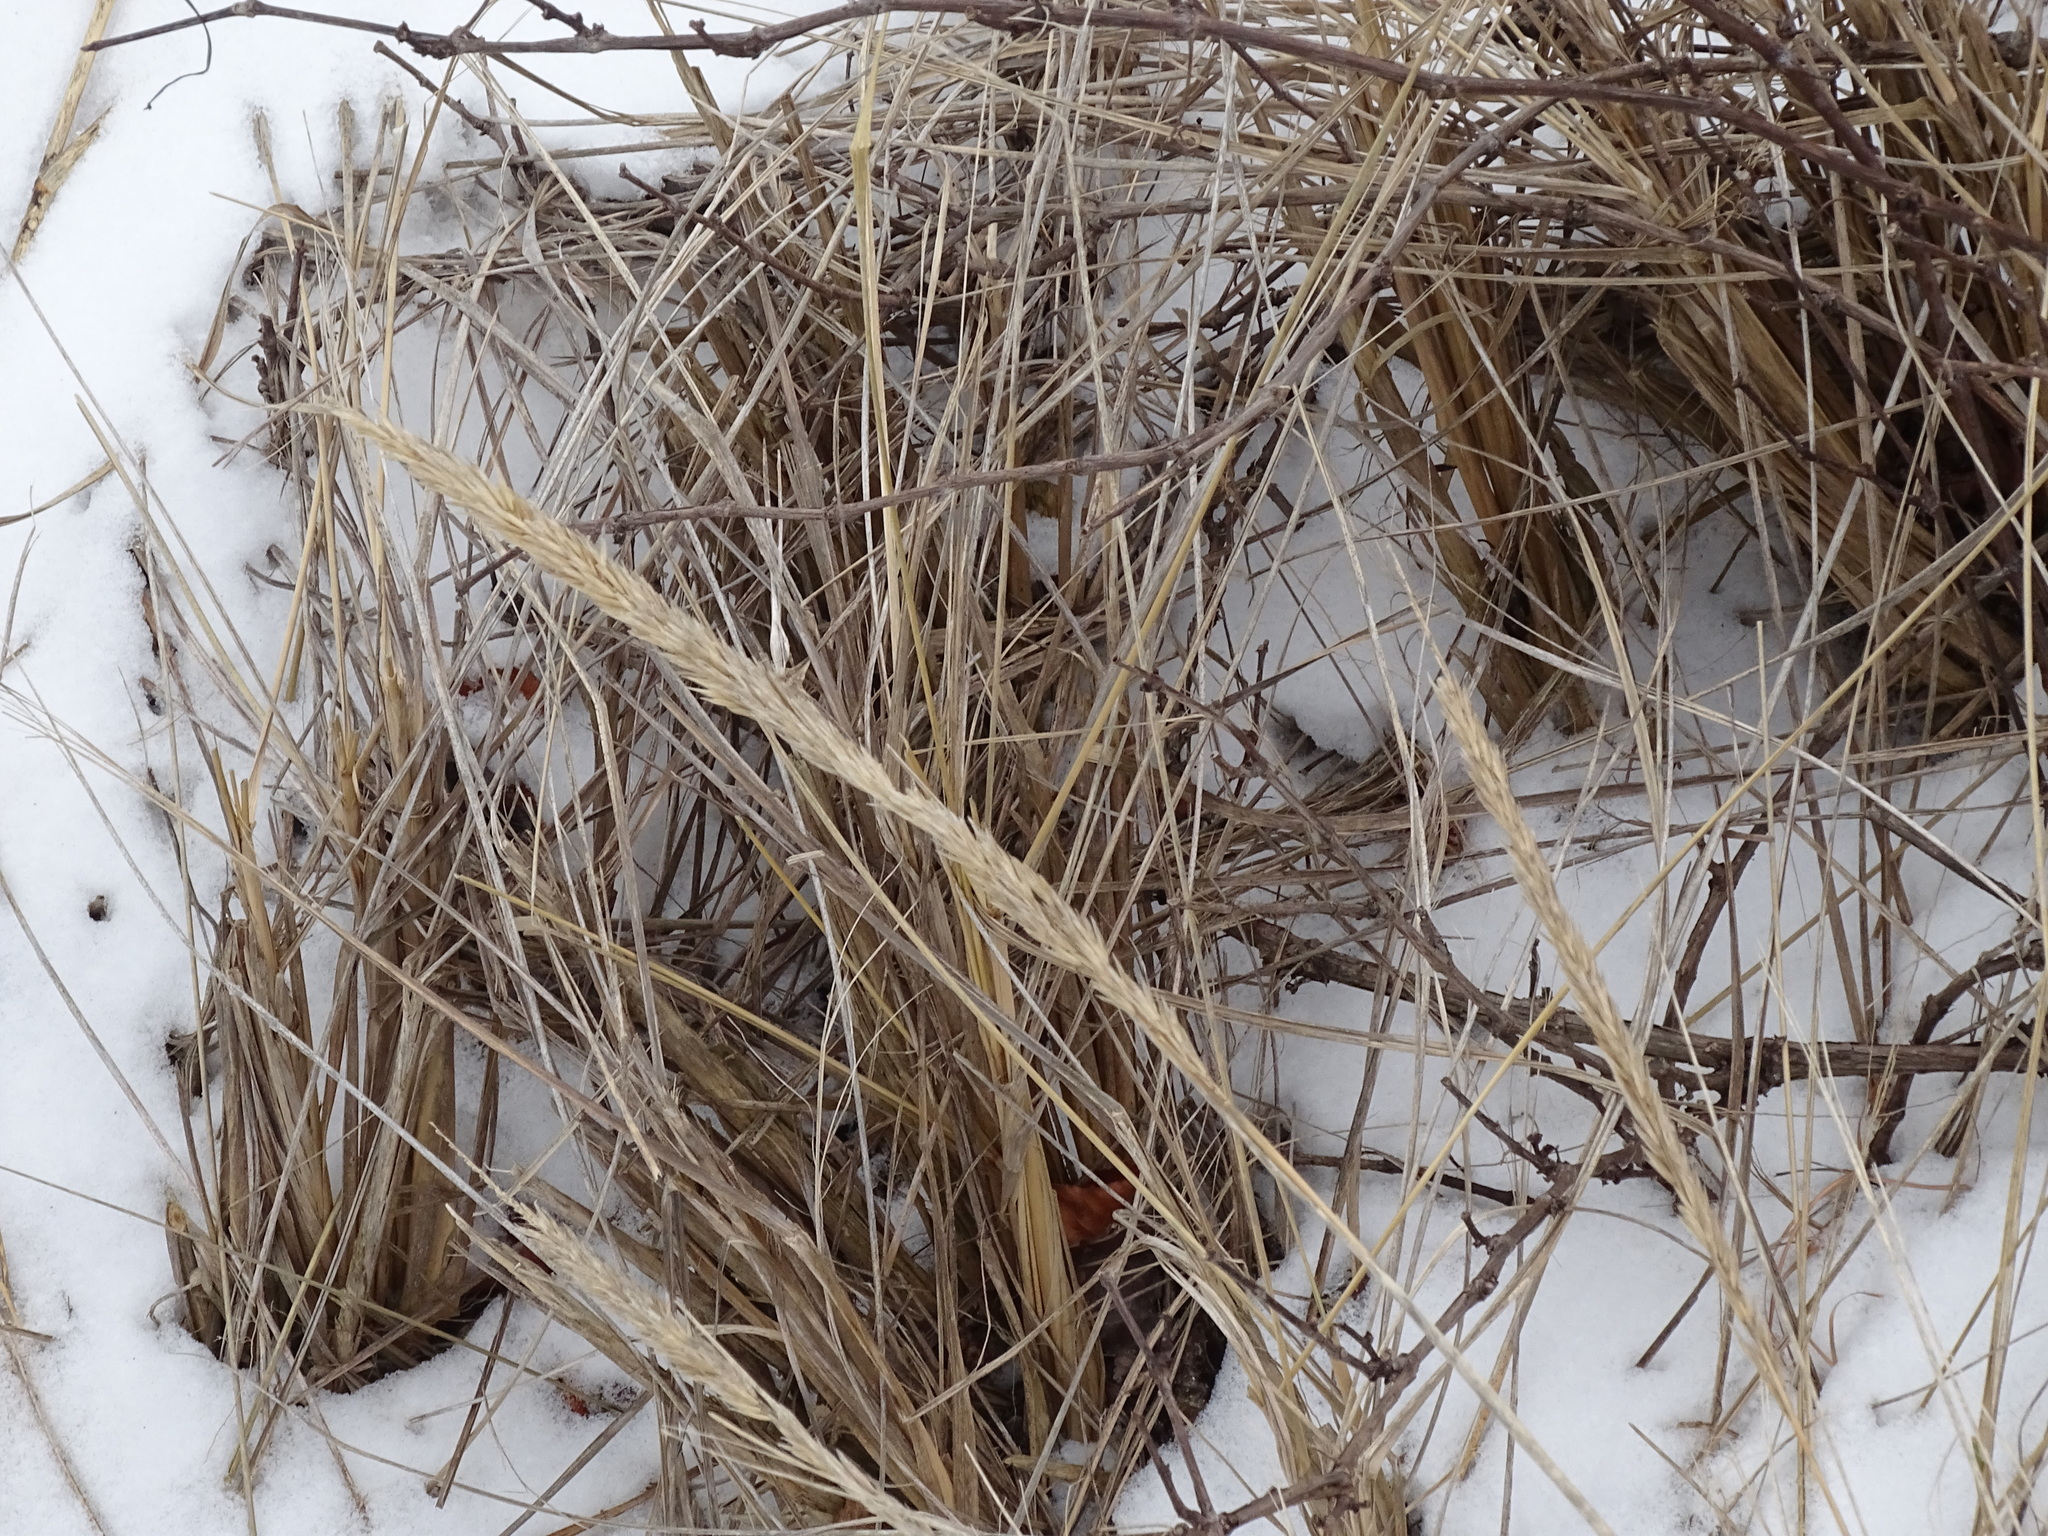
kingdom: Plantae
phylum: Tracheophyta
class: Liliopsida
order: Poales
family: Poaceae
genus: Calamagrostis
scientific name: Calamagrostis breviligulata
